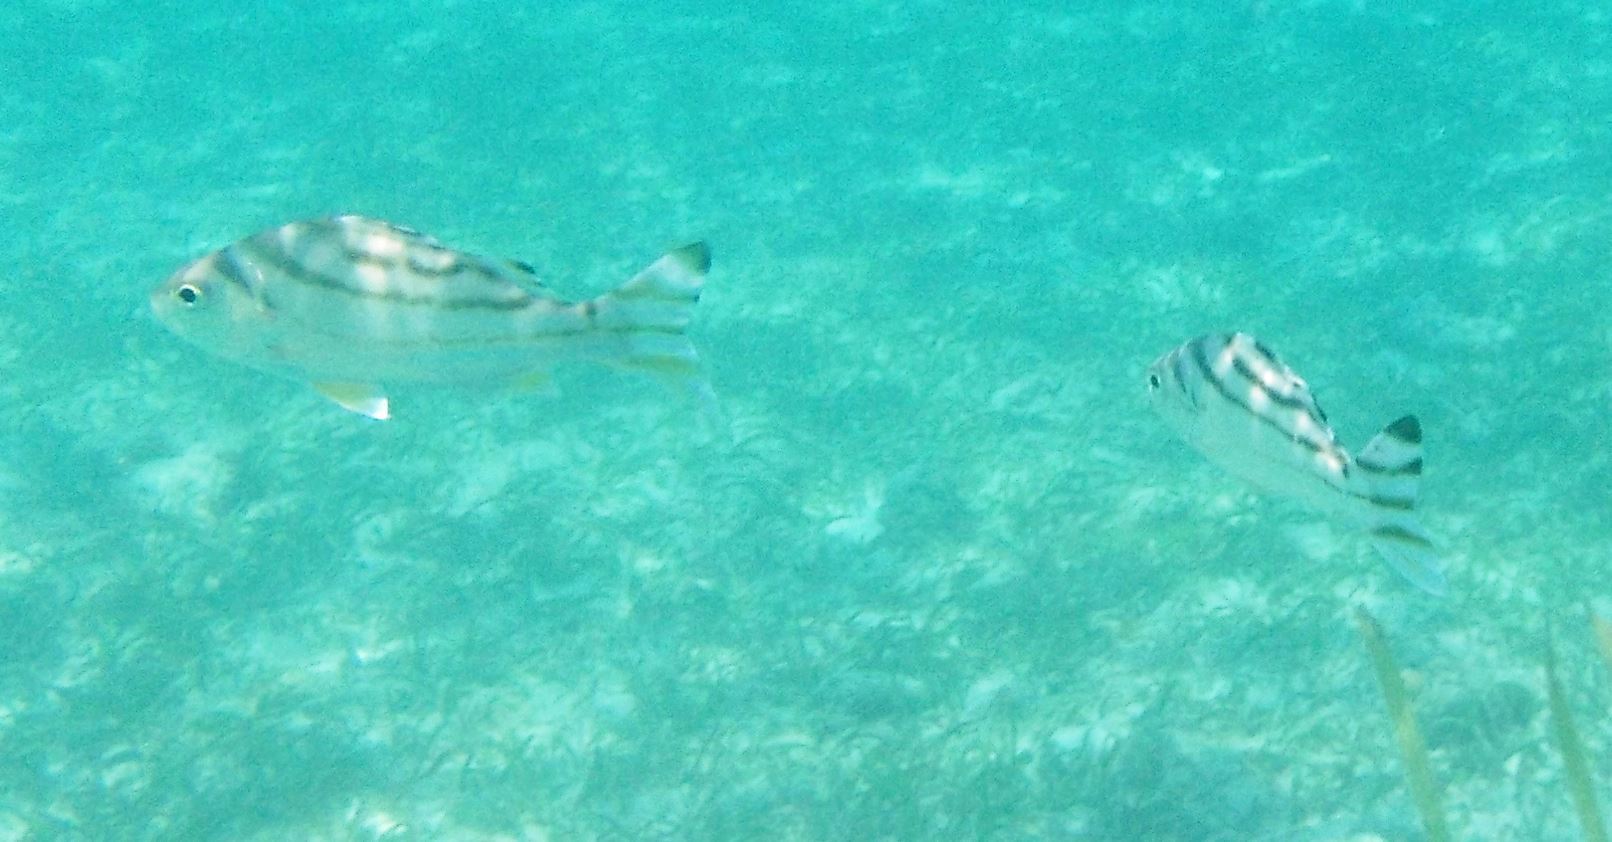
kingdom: Animalia
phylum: Chordata
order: Perciformes
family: Terapontidae
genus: Terapon
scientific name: Terapon jarbua
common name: Jarbua terapon
